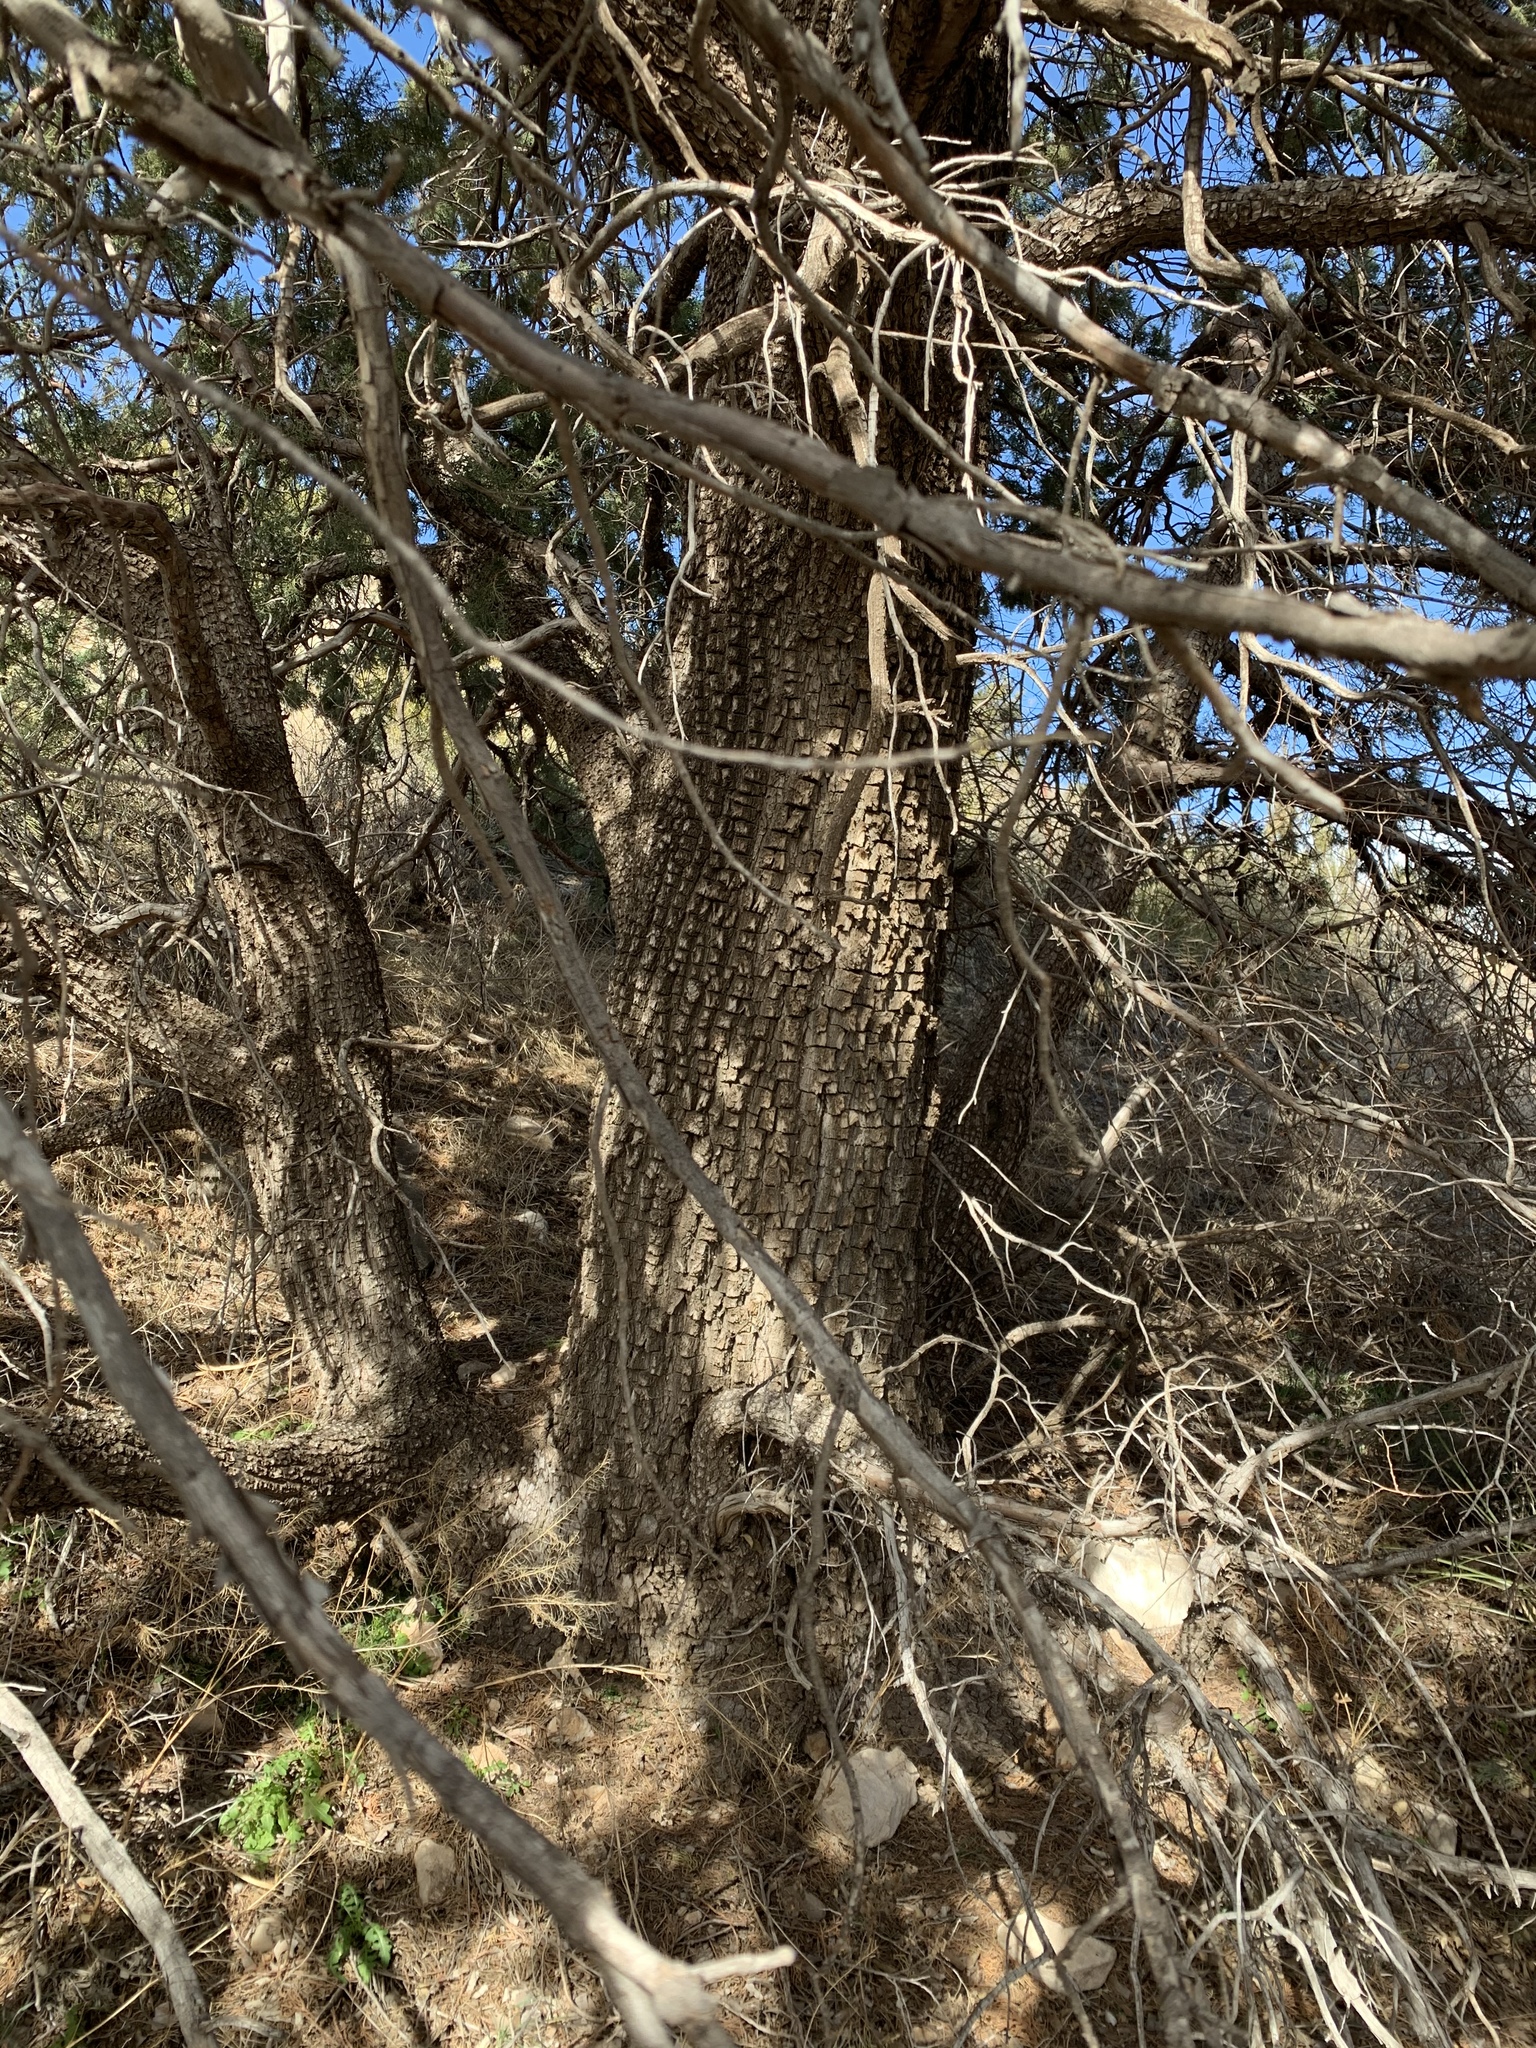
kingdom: Plantae
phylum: Tracheophyta
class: Pinopsida
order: Pinales
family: Cupressaceae
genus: Juniperus
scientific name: Juniperus deppeana
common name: Alligator juniper
